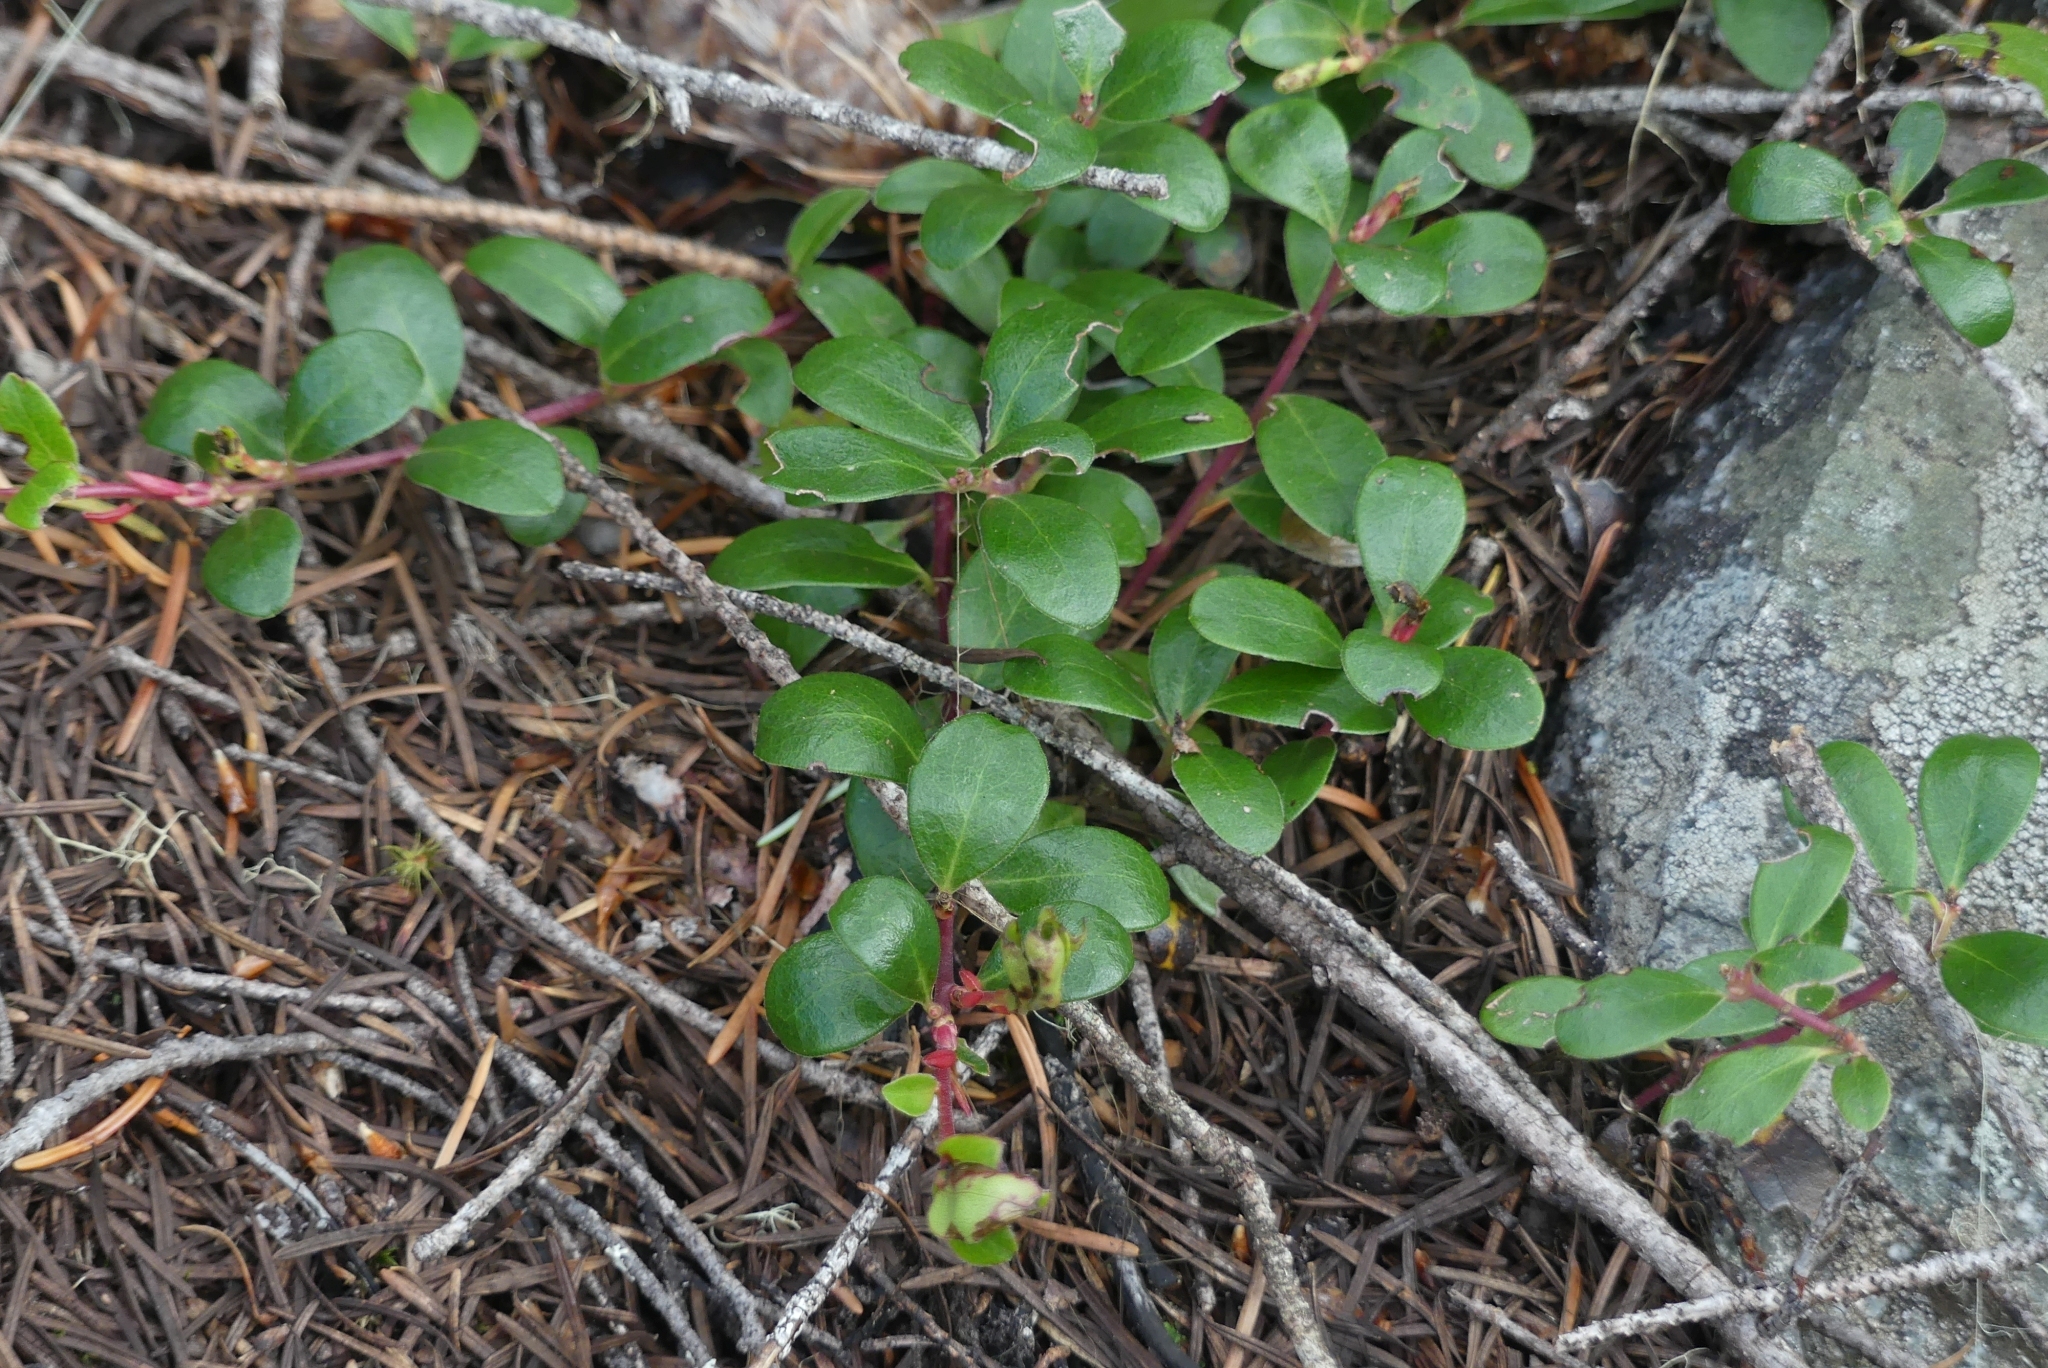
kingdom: Plantae
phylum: Tracheophyta
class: Magnoliopsida
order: Ericales
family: Ericaceae
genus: Arctostaphylos
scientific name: Arctostaphylos uva-ursi
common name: Bearberry
